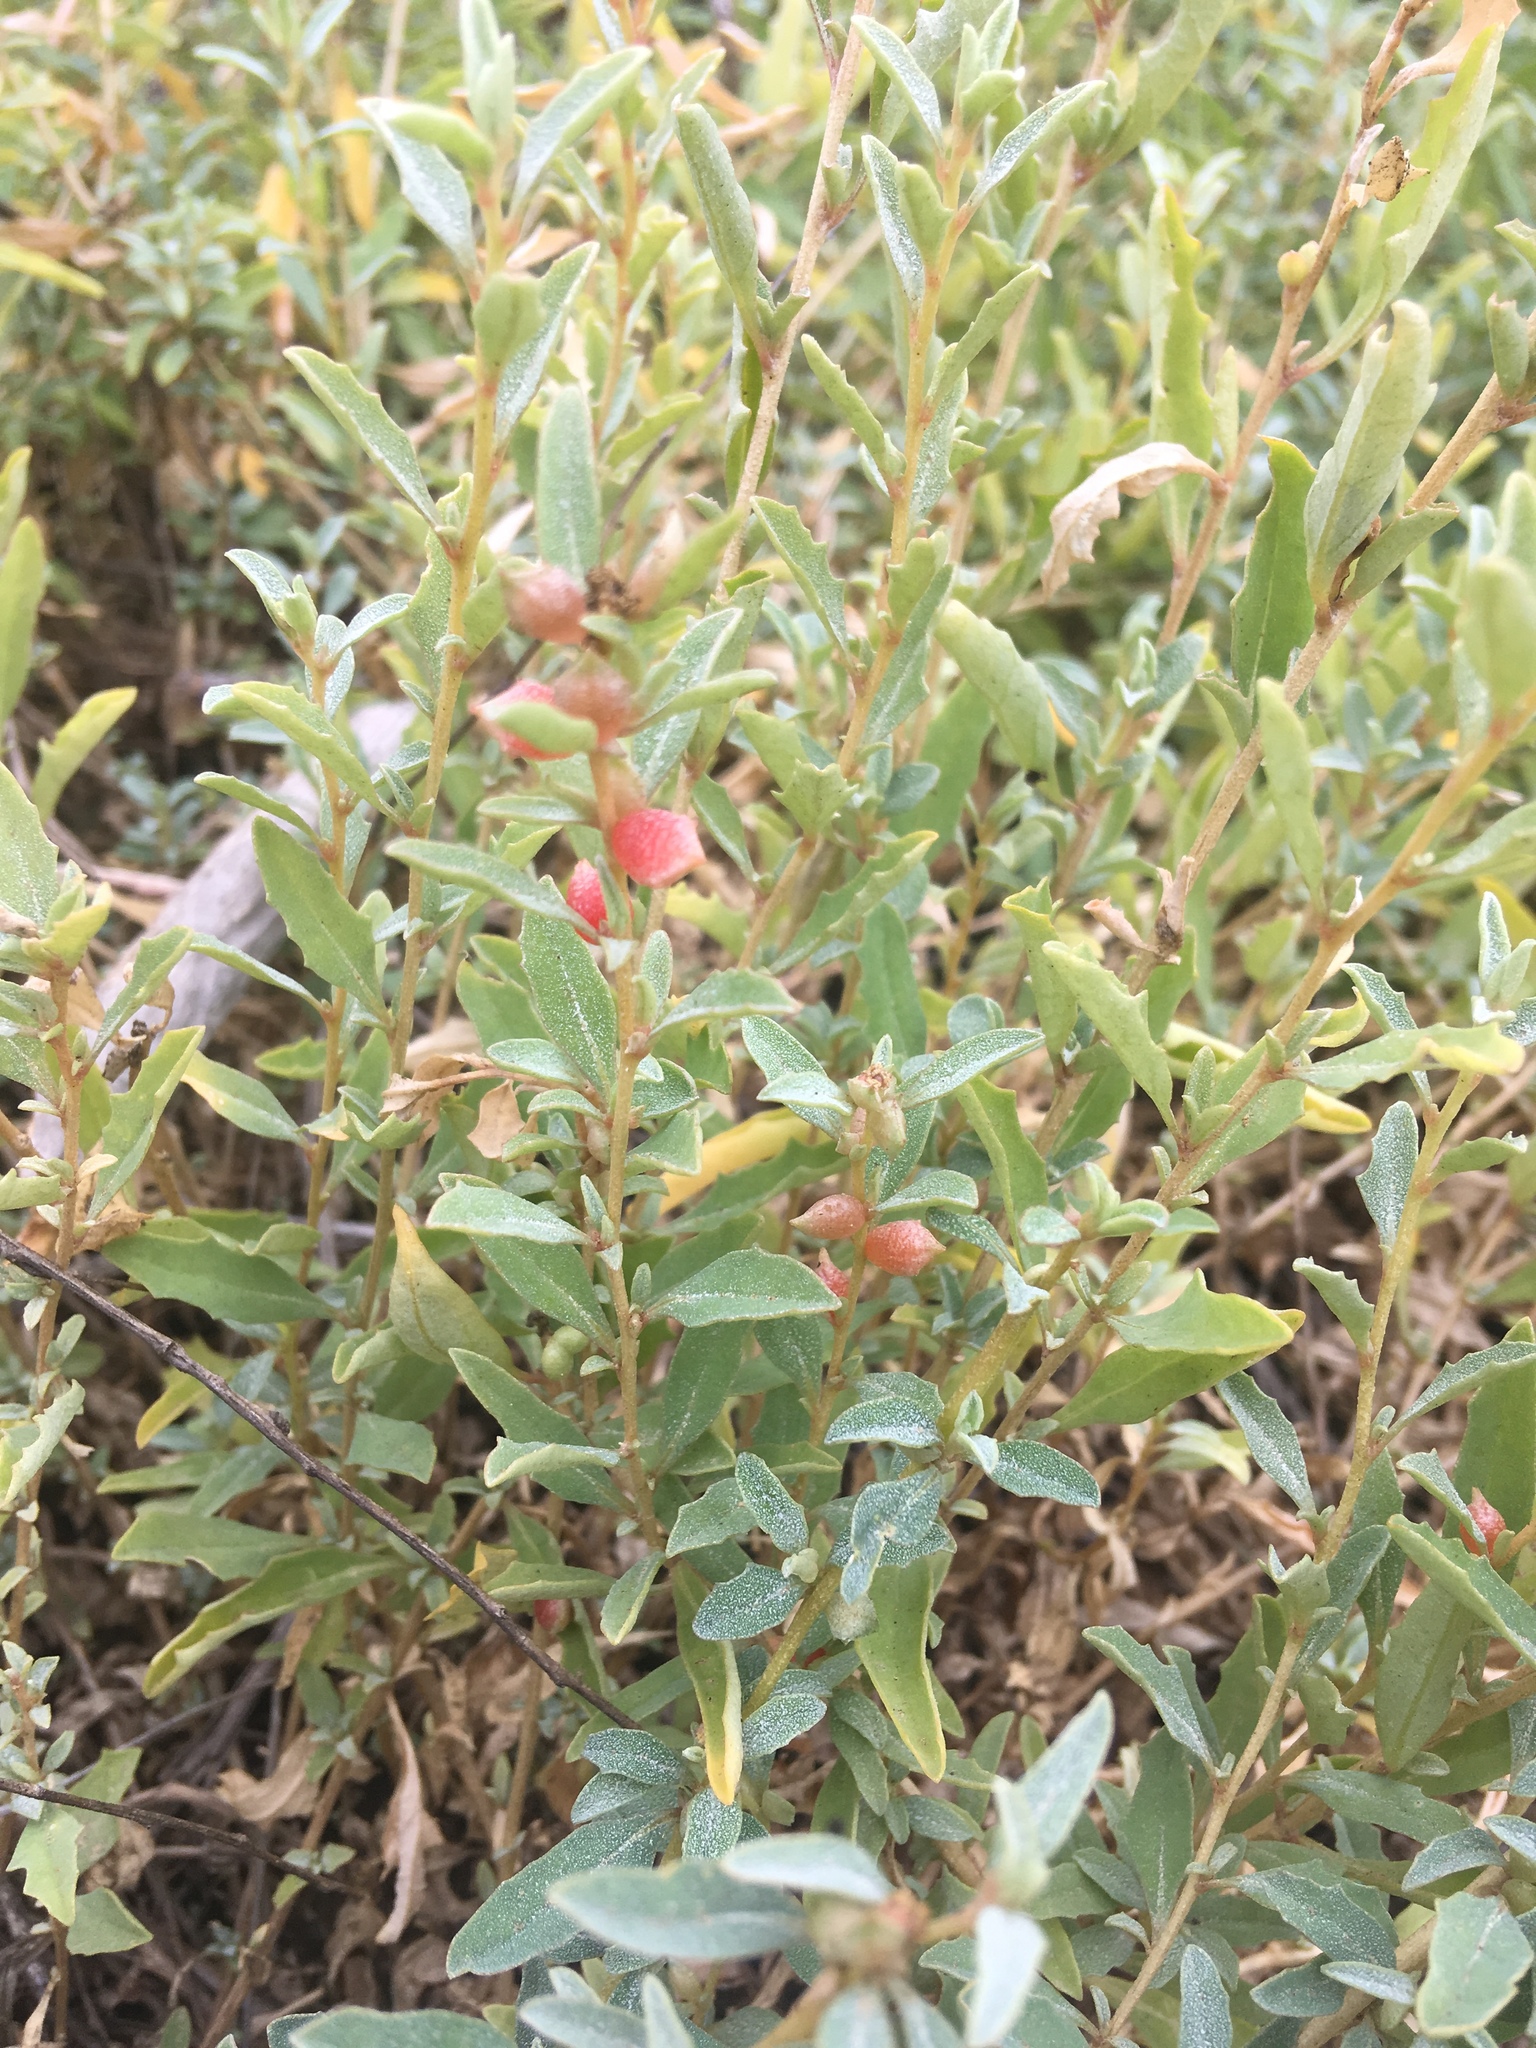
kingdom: Plantae
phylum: Tracheophyta
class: Magnoliopsida
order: Caryophyllales
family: Amaranthaceae
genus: Atriplex
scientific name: Atriplex semibaccata
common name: Australian saltbush
